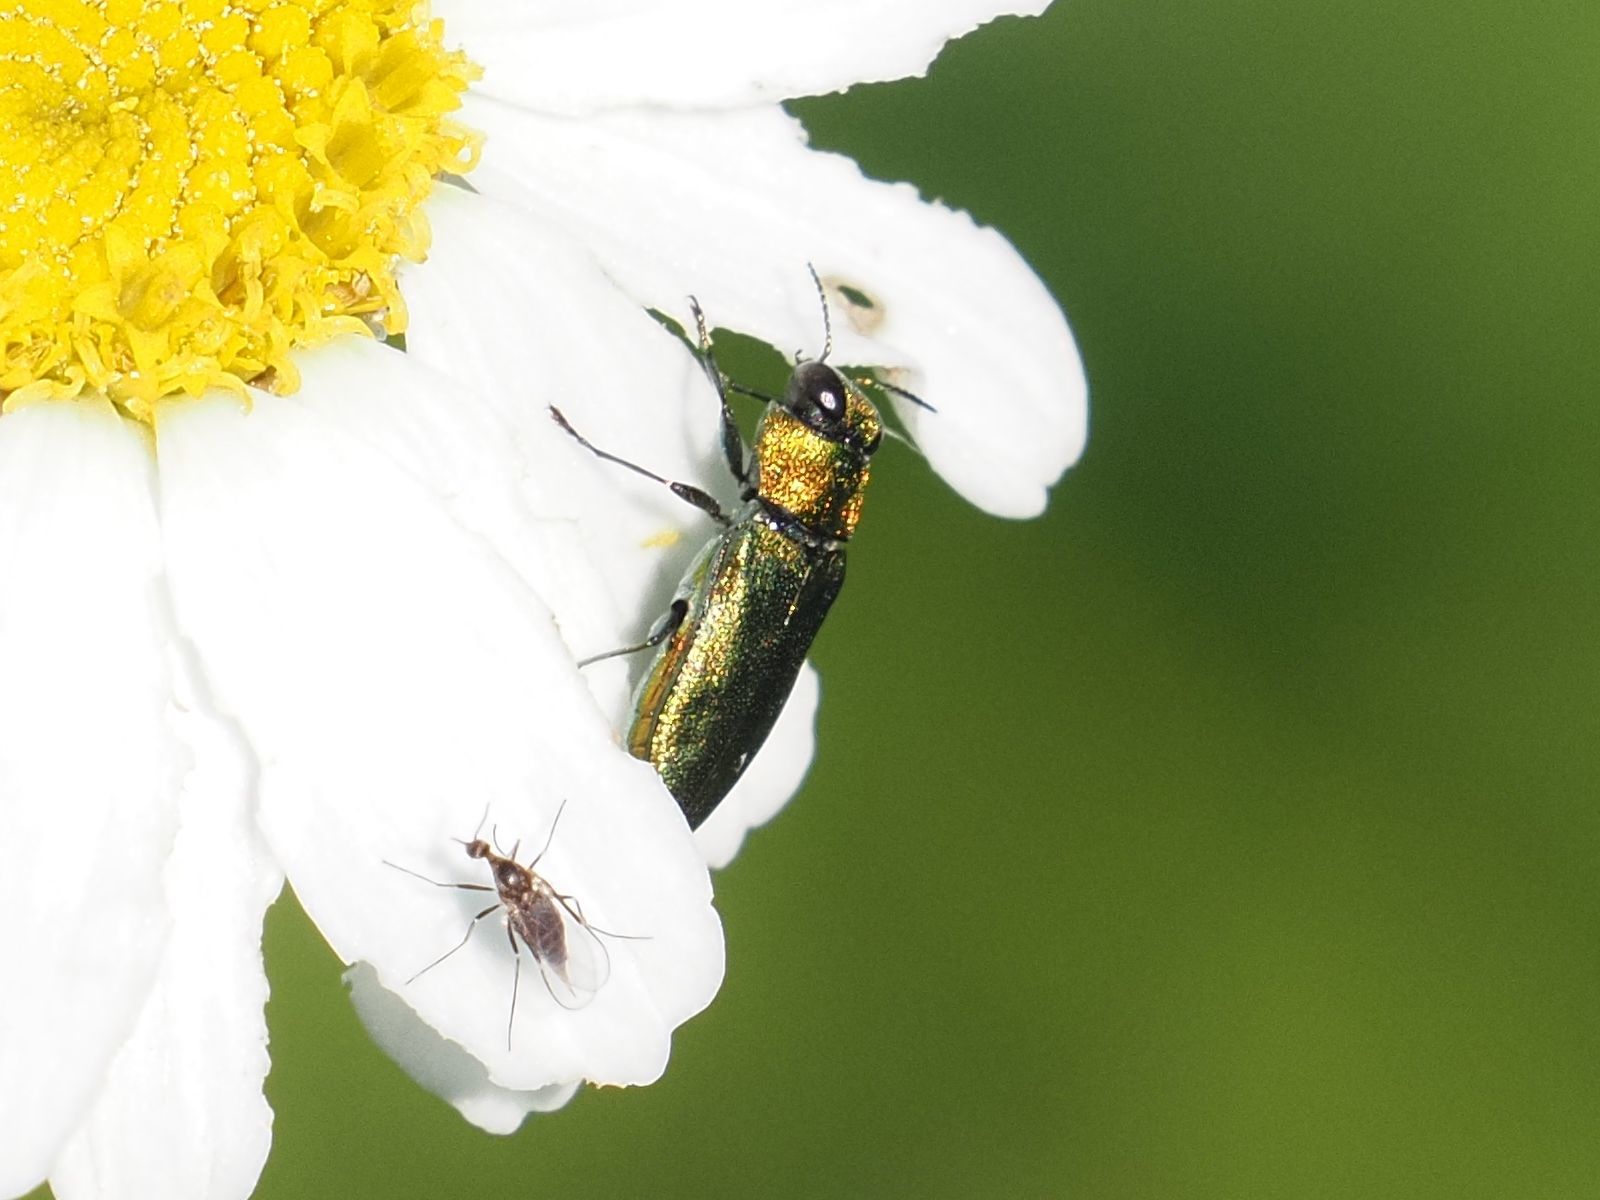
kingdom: Animalia
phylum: Arthropoda
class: Insecta
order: Coleoptera
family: Buprestidae
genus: Anthaxia
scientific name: Anthaxia nitidula
